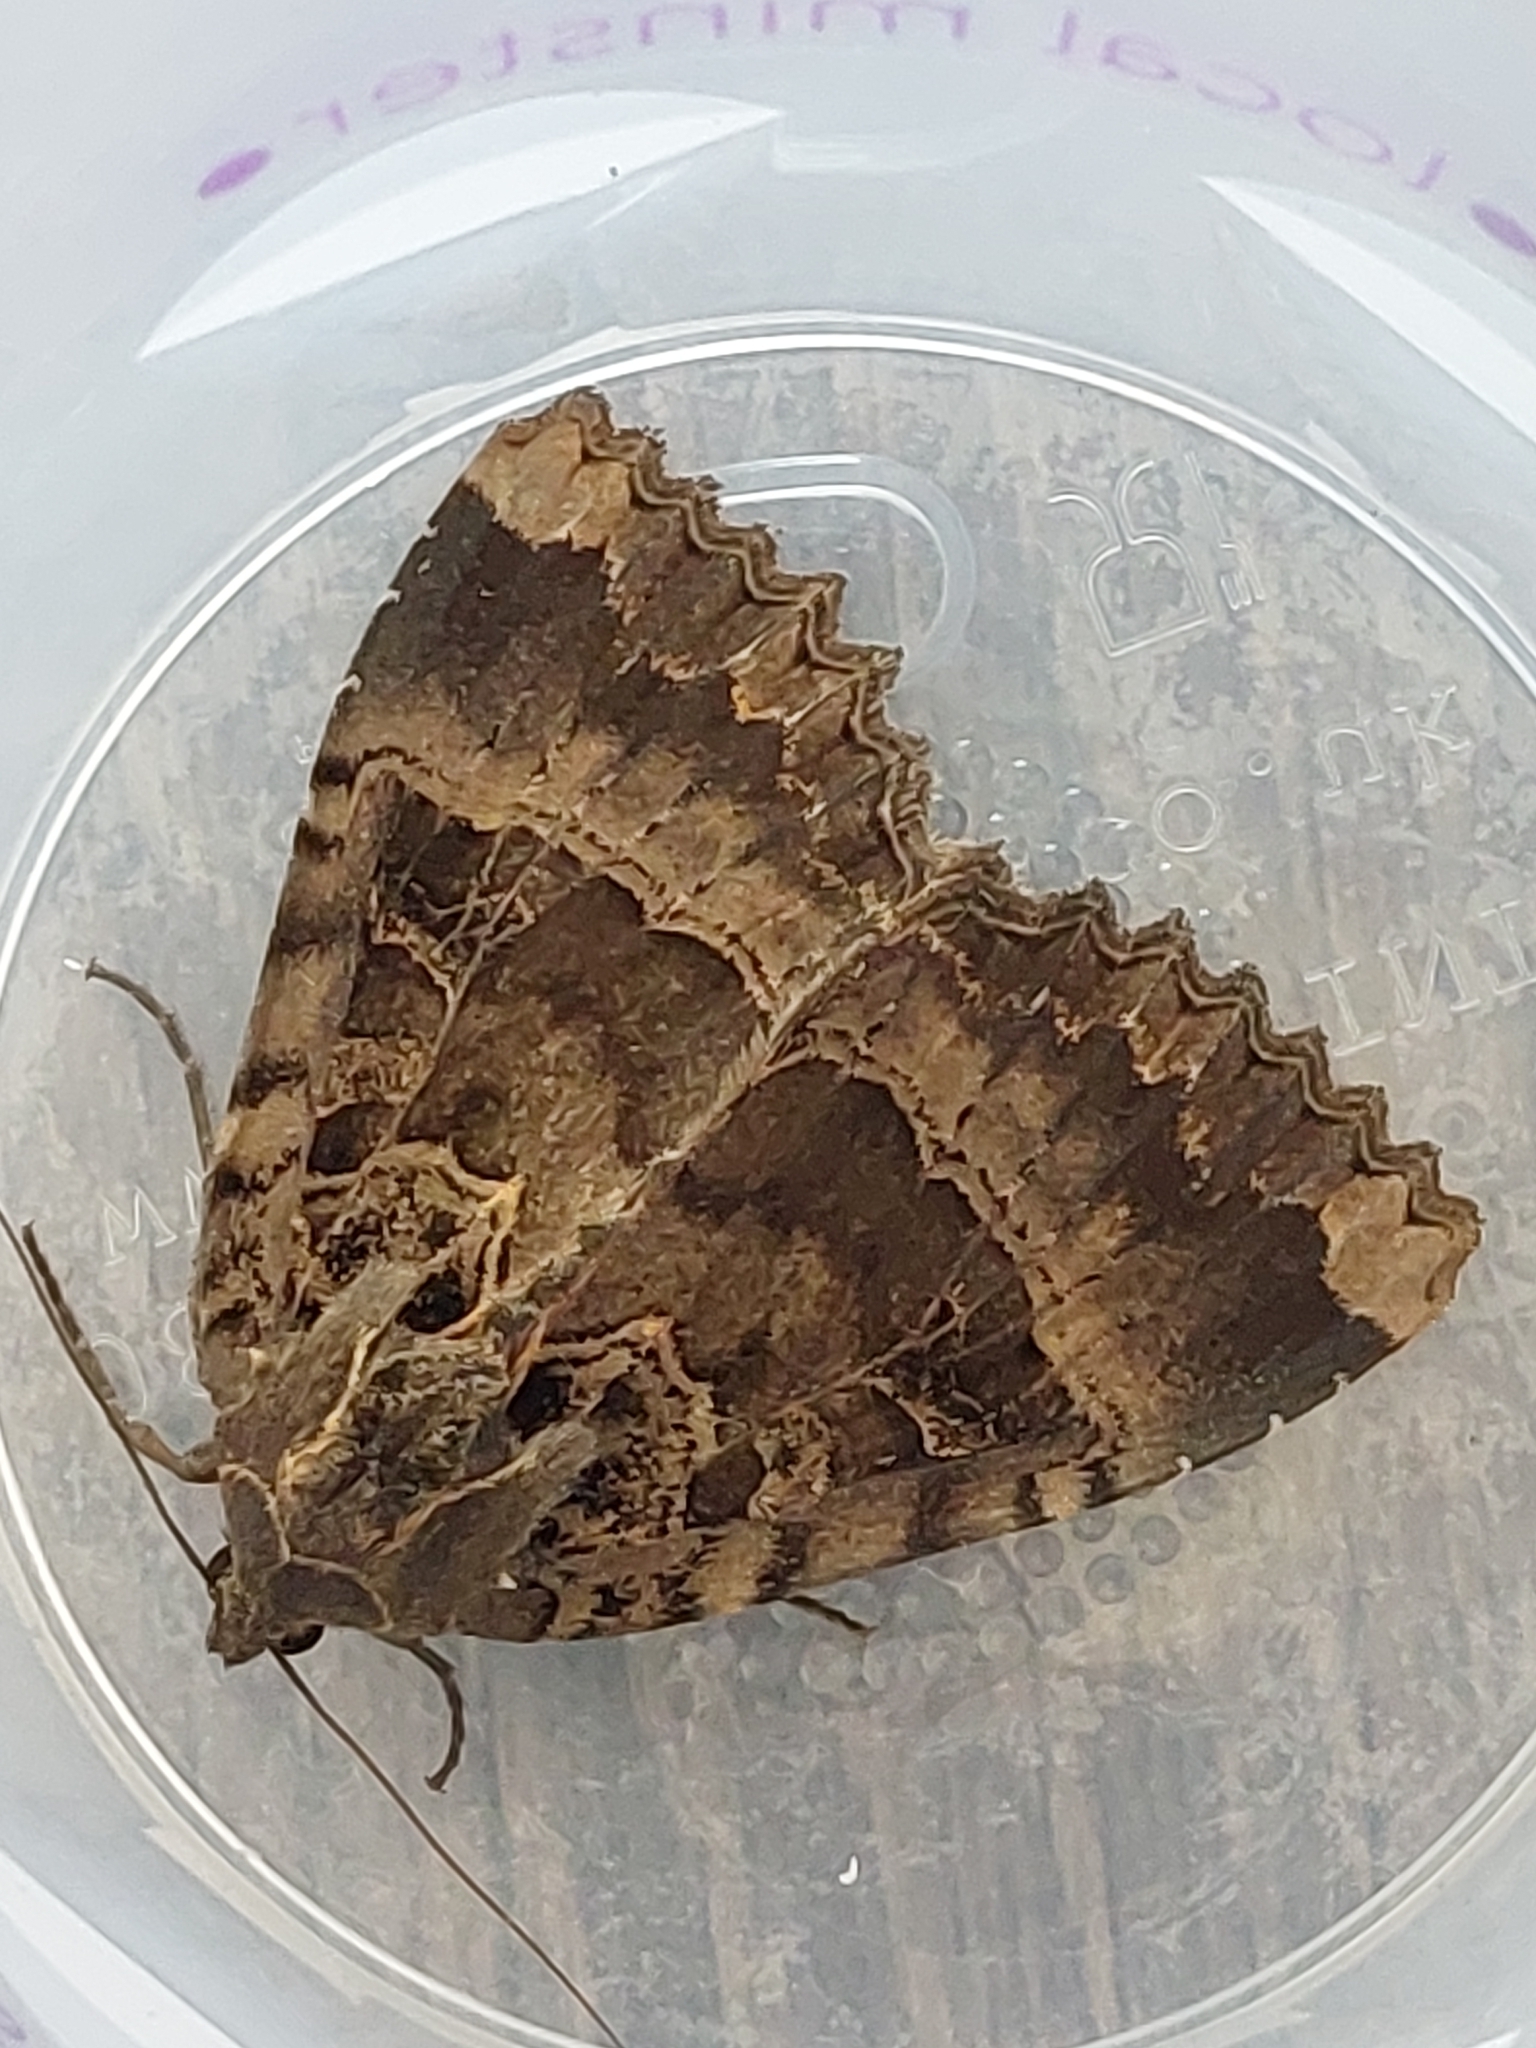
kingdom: Animalia
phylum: Arthropoda
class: Insecta
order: Lepidoptera
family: Noctuidae
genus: Mormo
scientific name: Mormo maura
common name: Old lady
